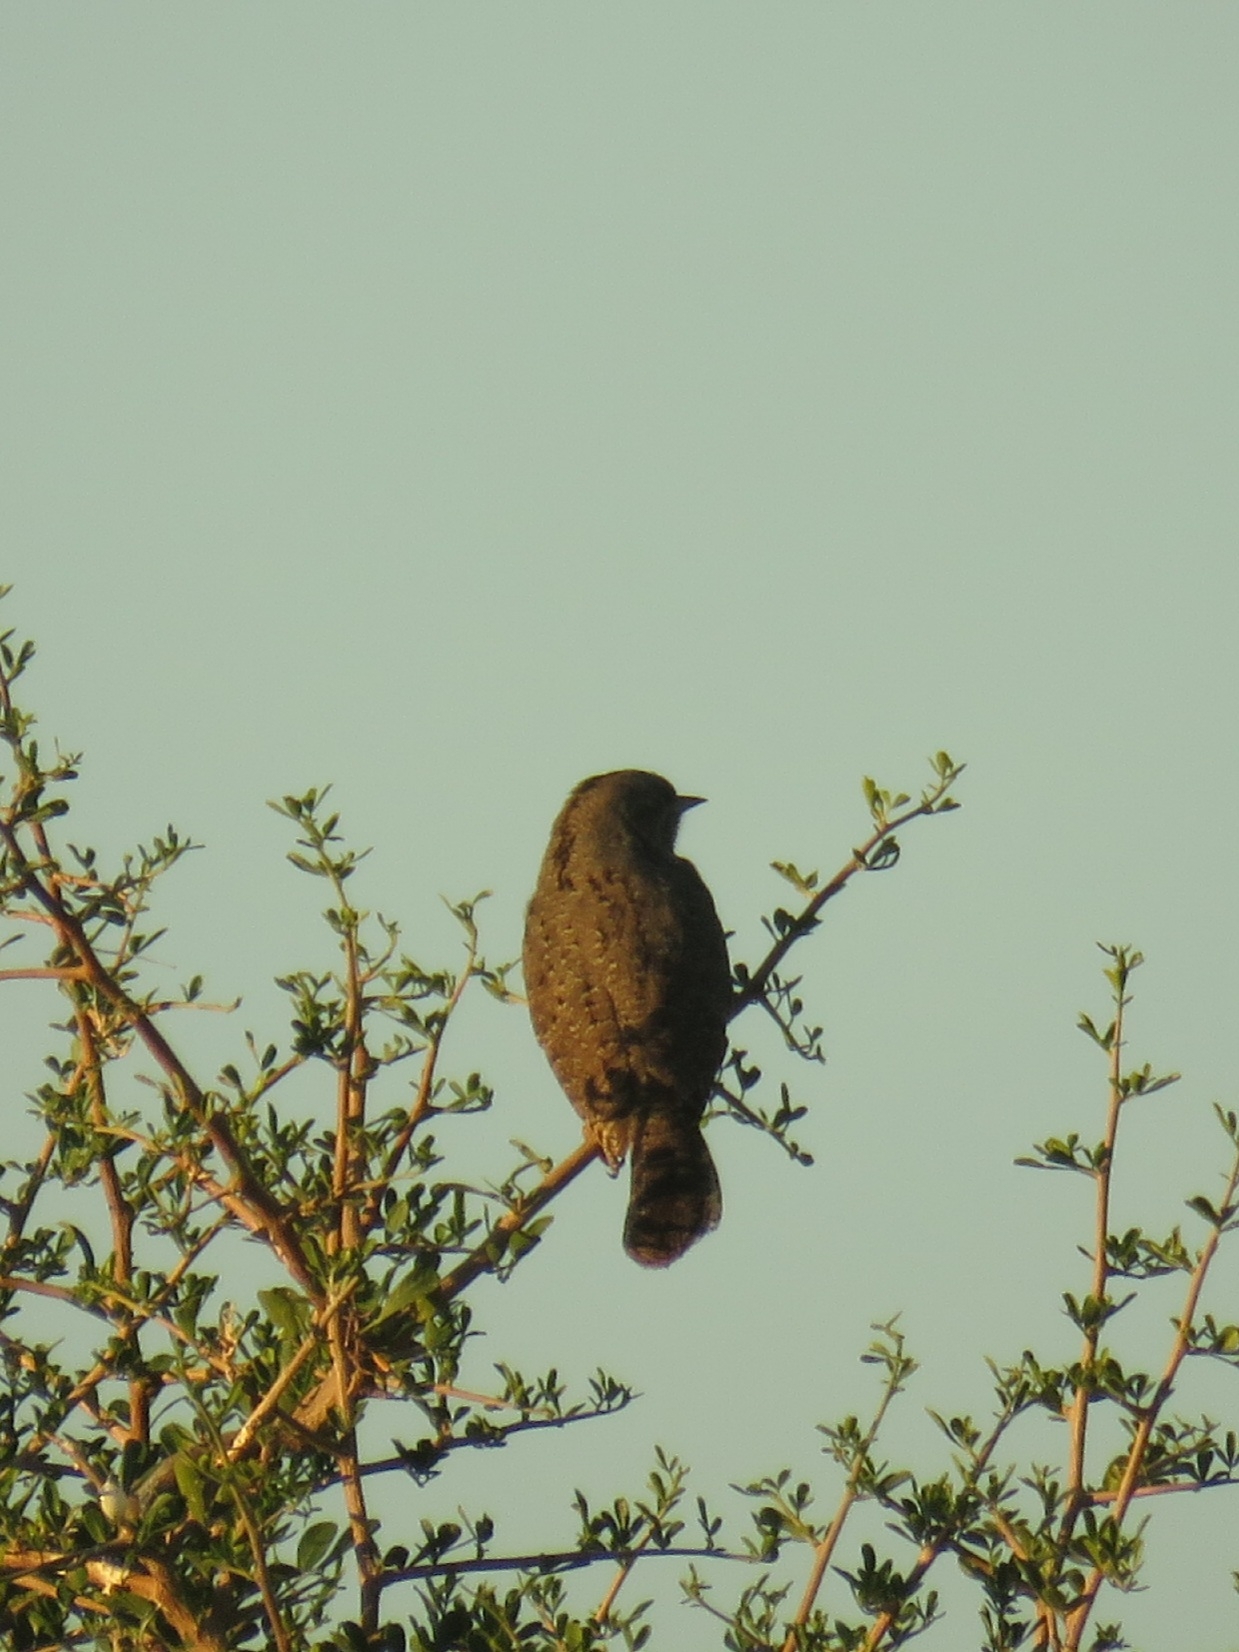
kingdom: Animalia
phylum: Chordata
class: Aves
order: Piciformes
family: Picidae
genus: Jynx
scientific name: Jynx ruficollis
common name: Red-throated wryneck
